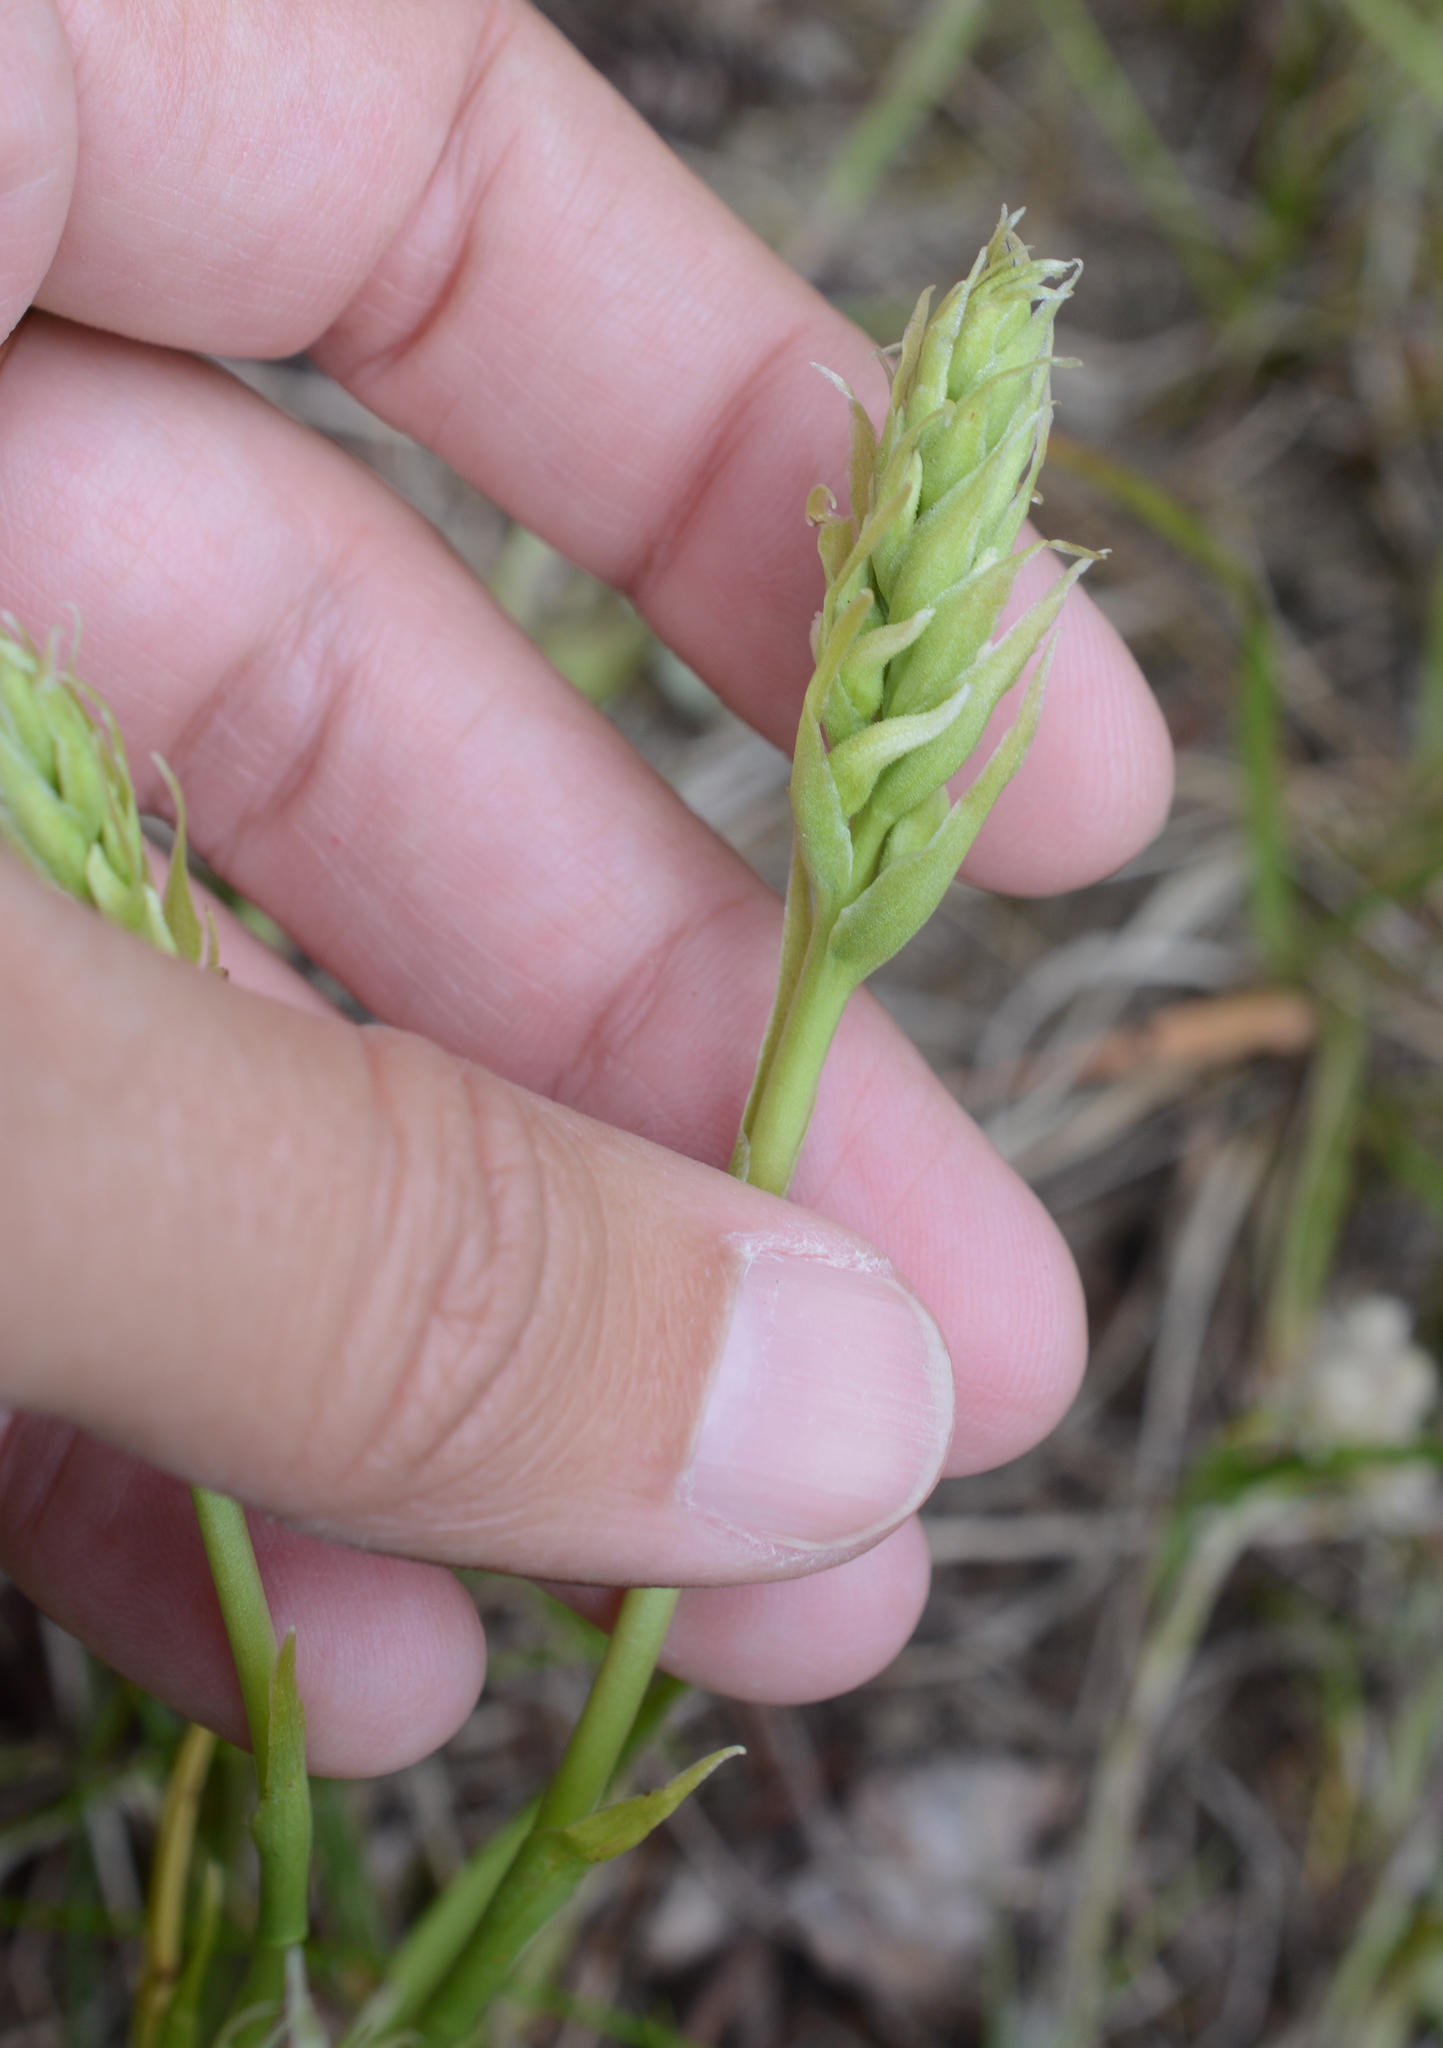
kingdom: Plantae
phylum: Tracheophyta
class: Liliopsida
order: Asparagales
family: Orchidaceae
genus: Spiranthes
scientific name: Spiranthes romanzoffiana
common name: Irish lady's-tresses
